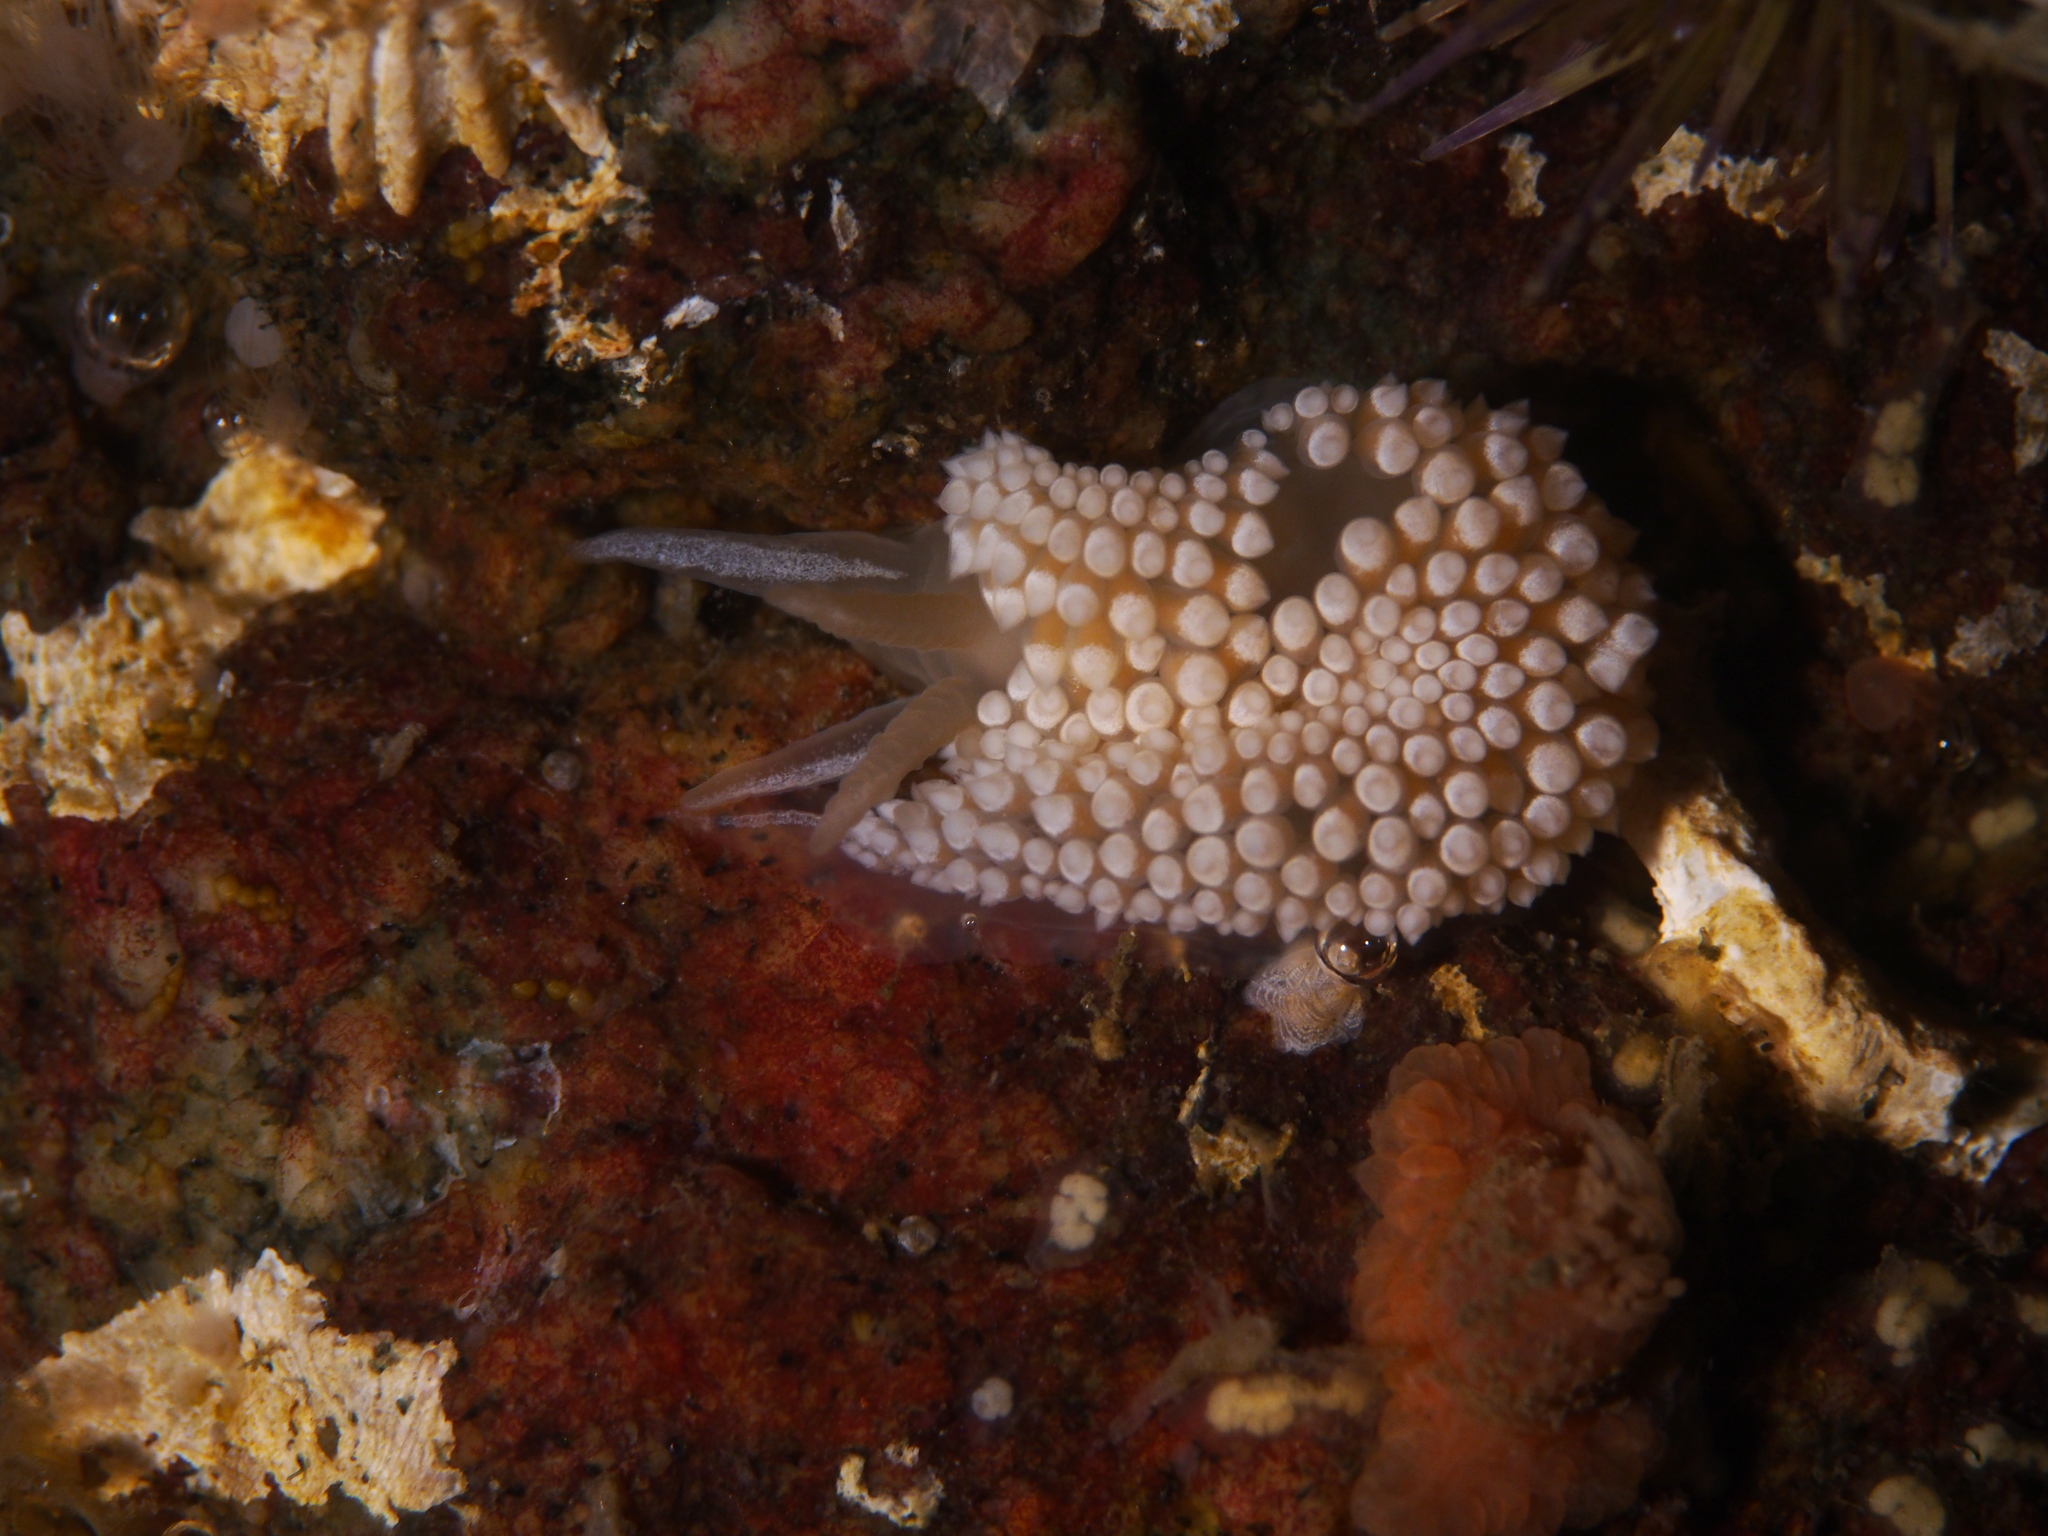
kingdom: Animalia
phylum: Mollusca
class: Gastropoda
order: Nudibranchia
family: Coryphellidae
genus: Coryphella
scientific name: Coryphella verrucosa
